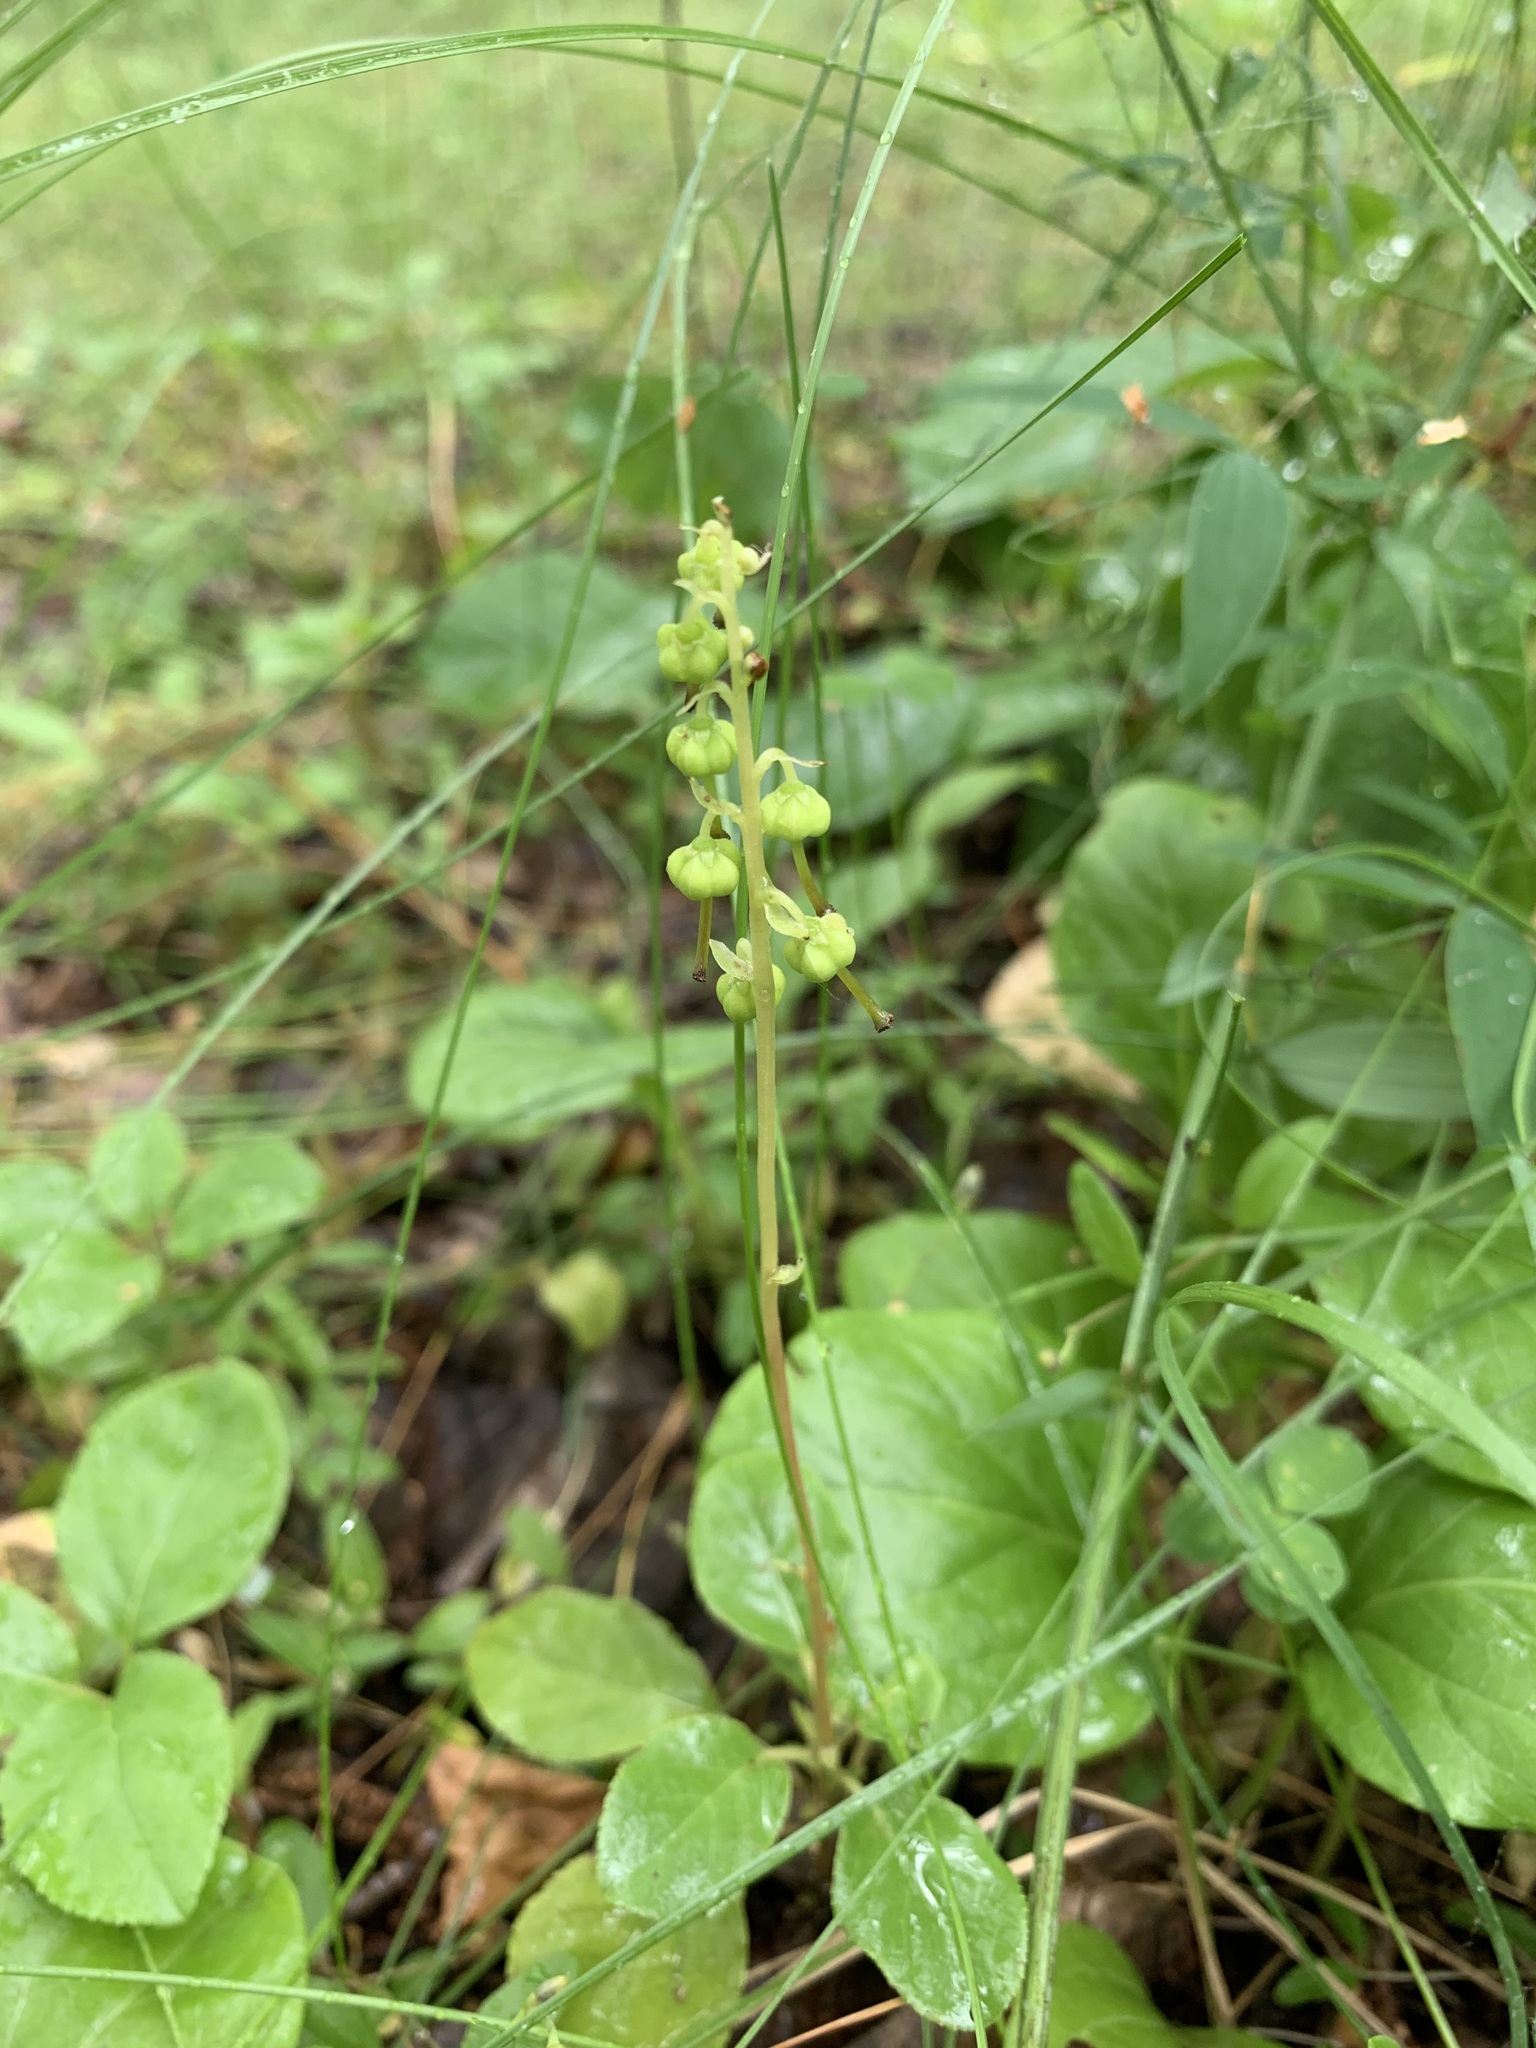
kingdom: Plantae
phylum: Tracheophyta
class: Magnoliopsida
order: Ericales
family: Ericaceae
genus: Orthilia
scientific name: Orthilia secunda
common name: One-sided orthilia
